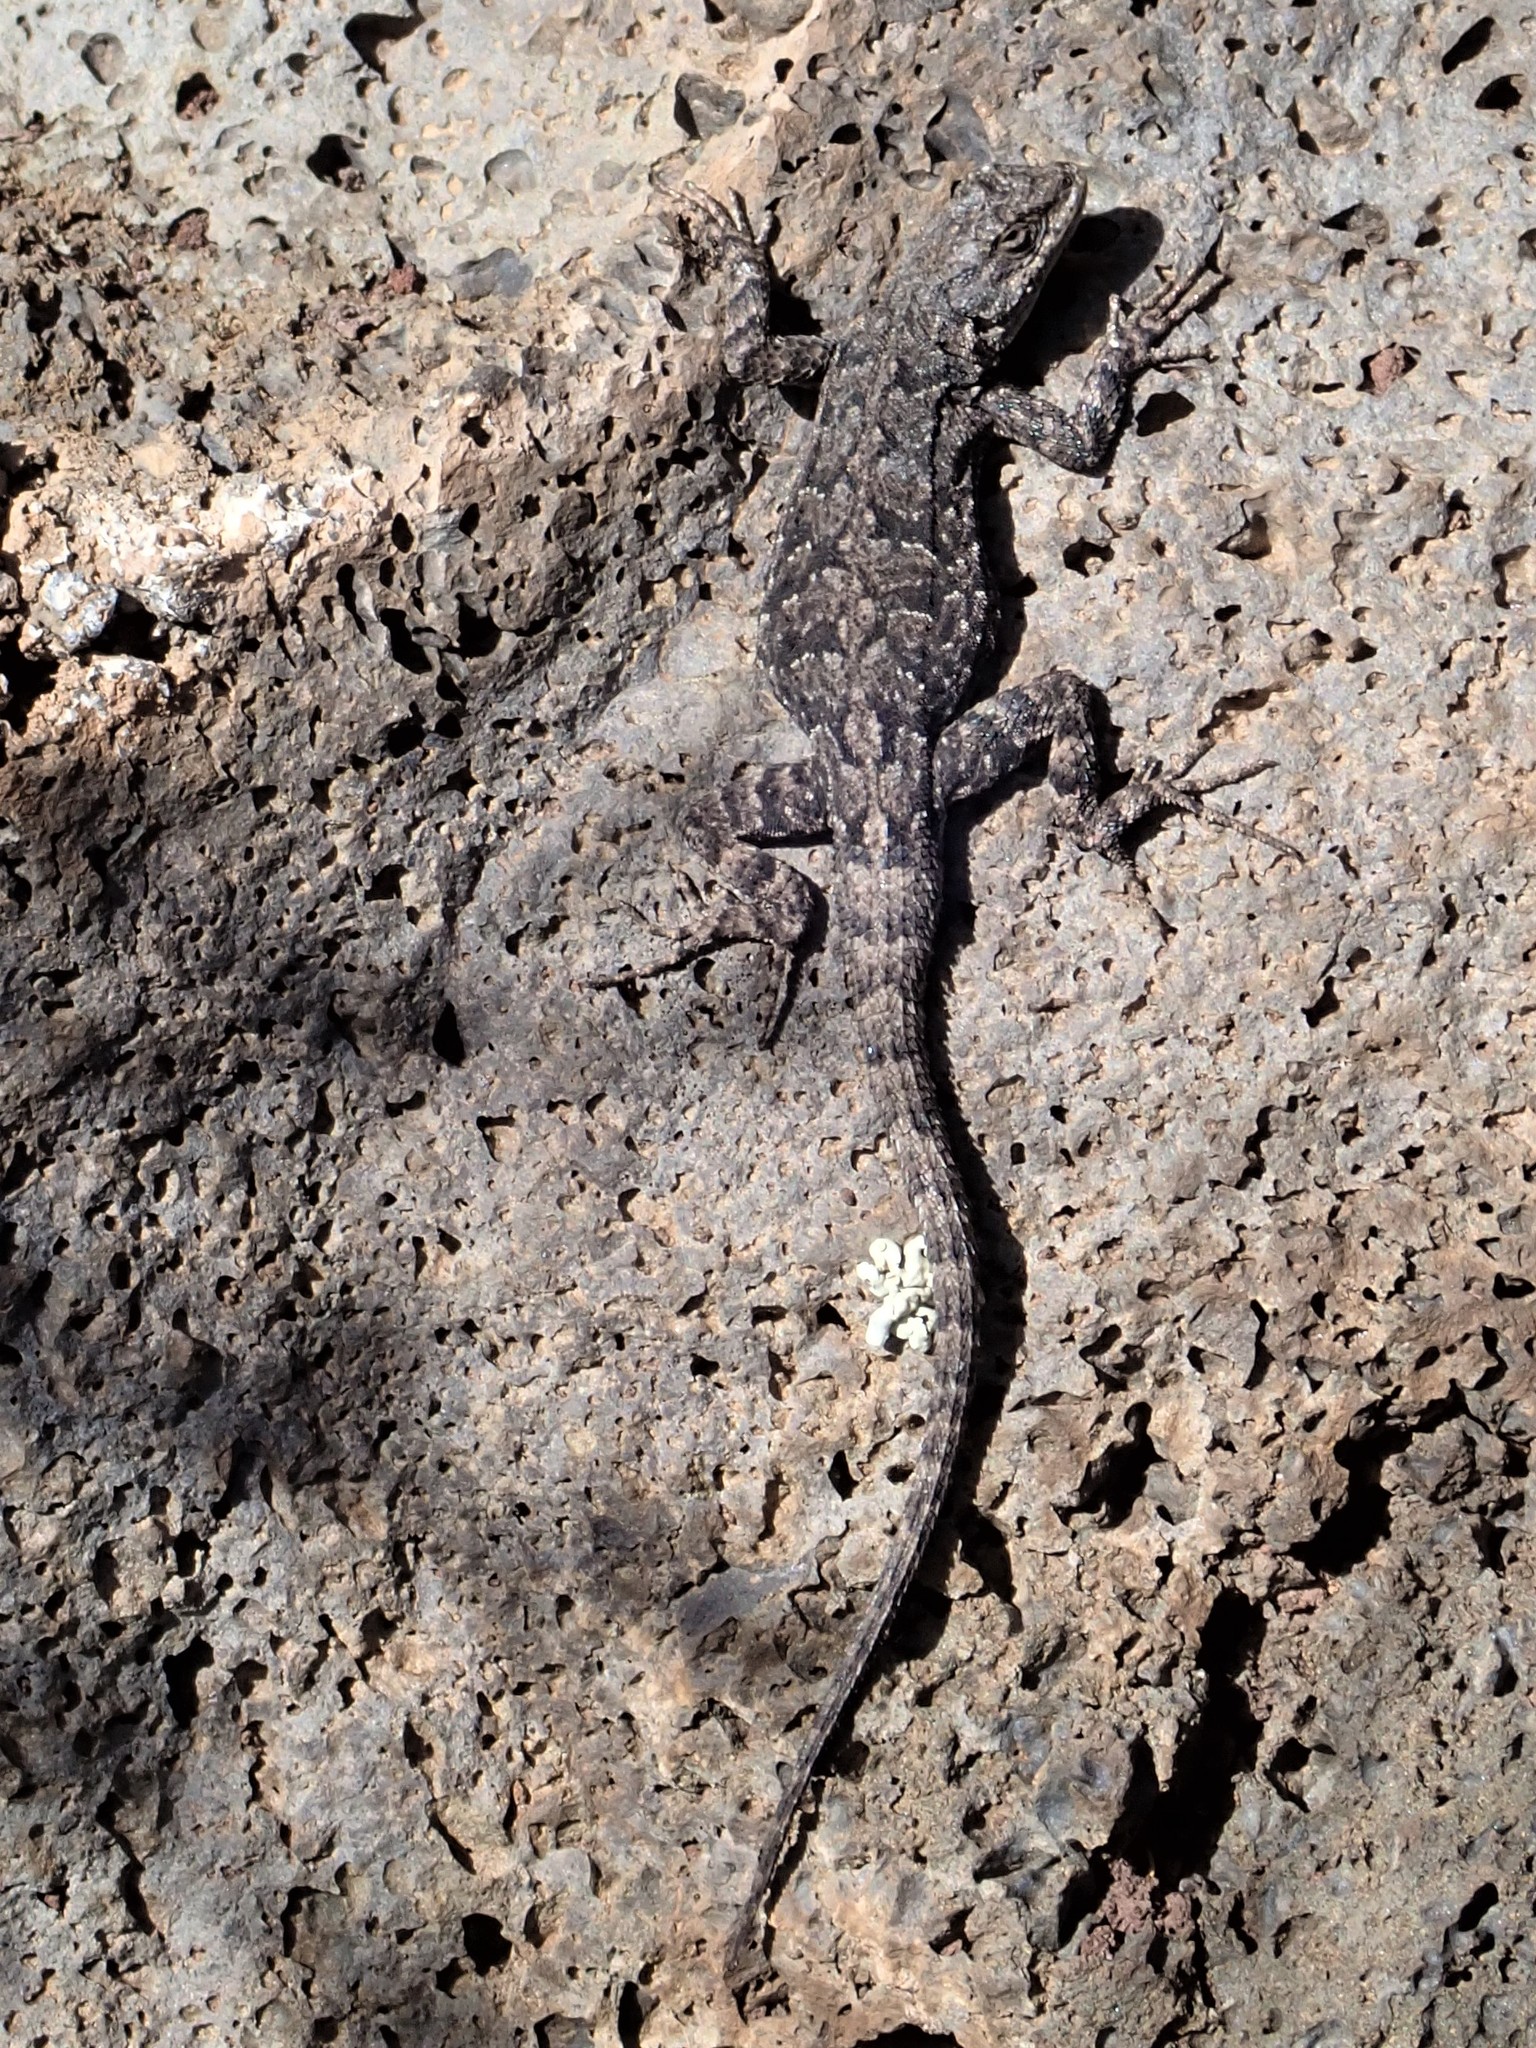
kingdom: Animalia
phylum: Chordata
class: Squamata
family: Phrynosomatidae
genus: Urosaurus
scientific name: Urosaurus ornatus
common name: Ornate tree lizard
